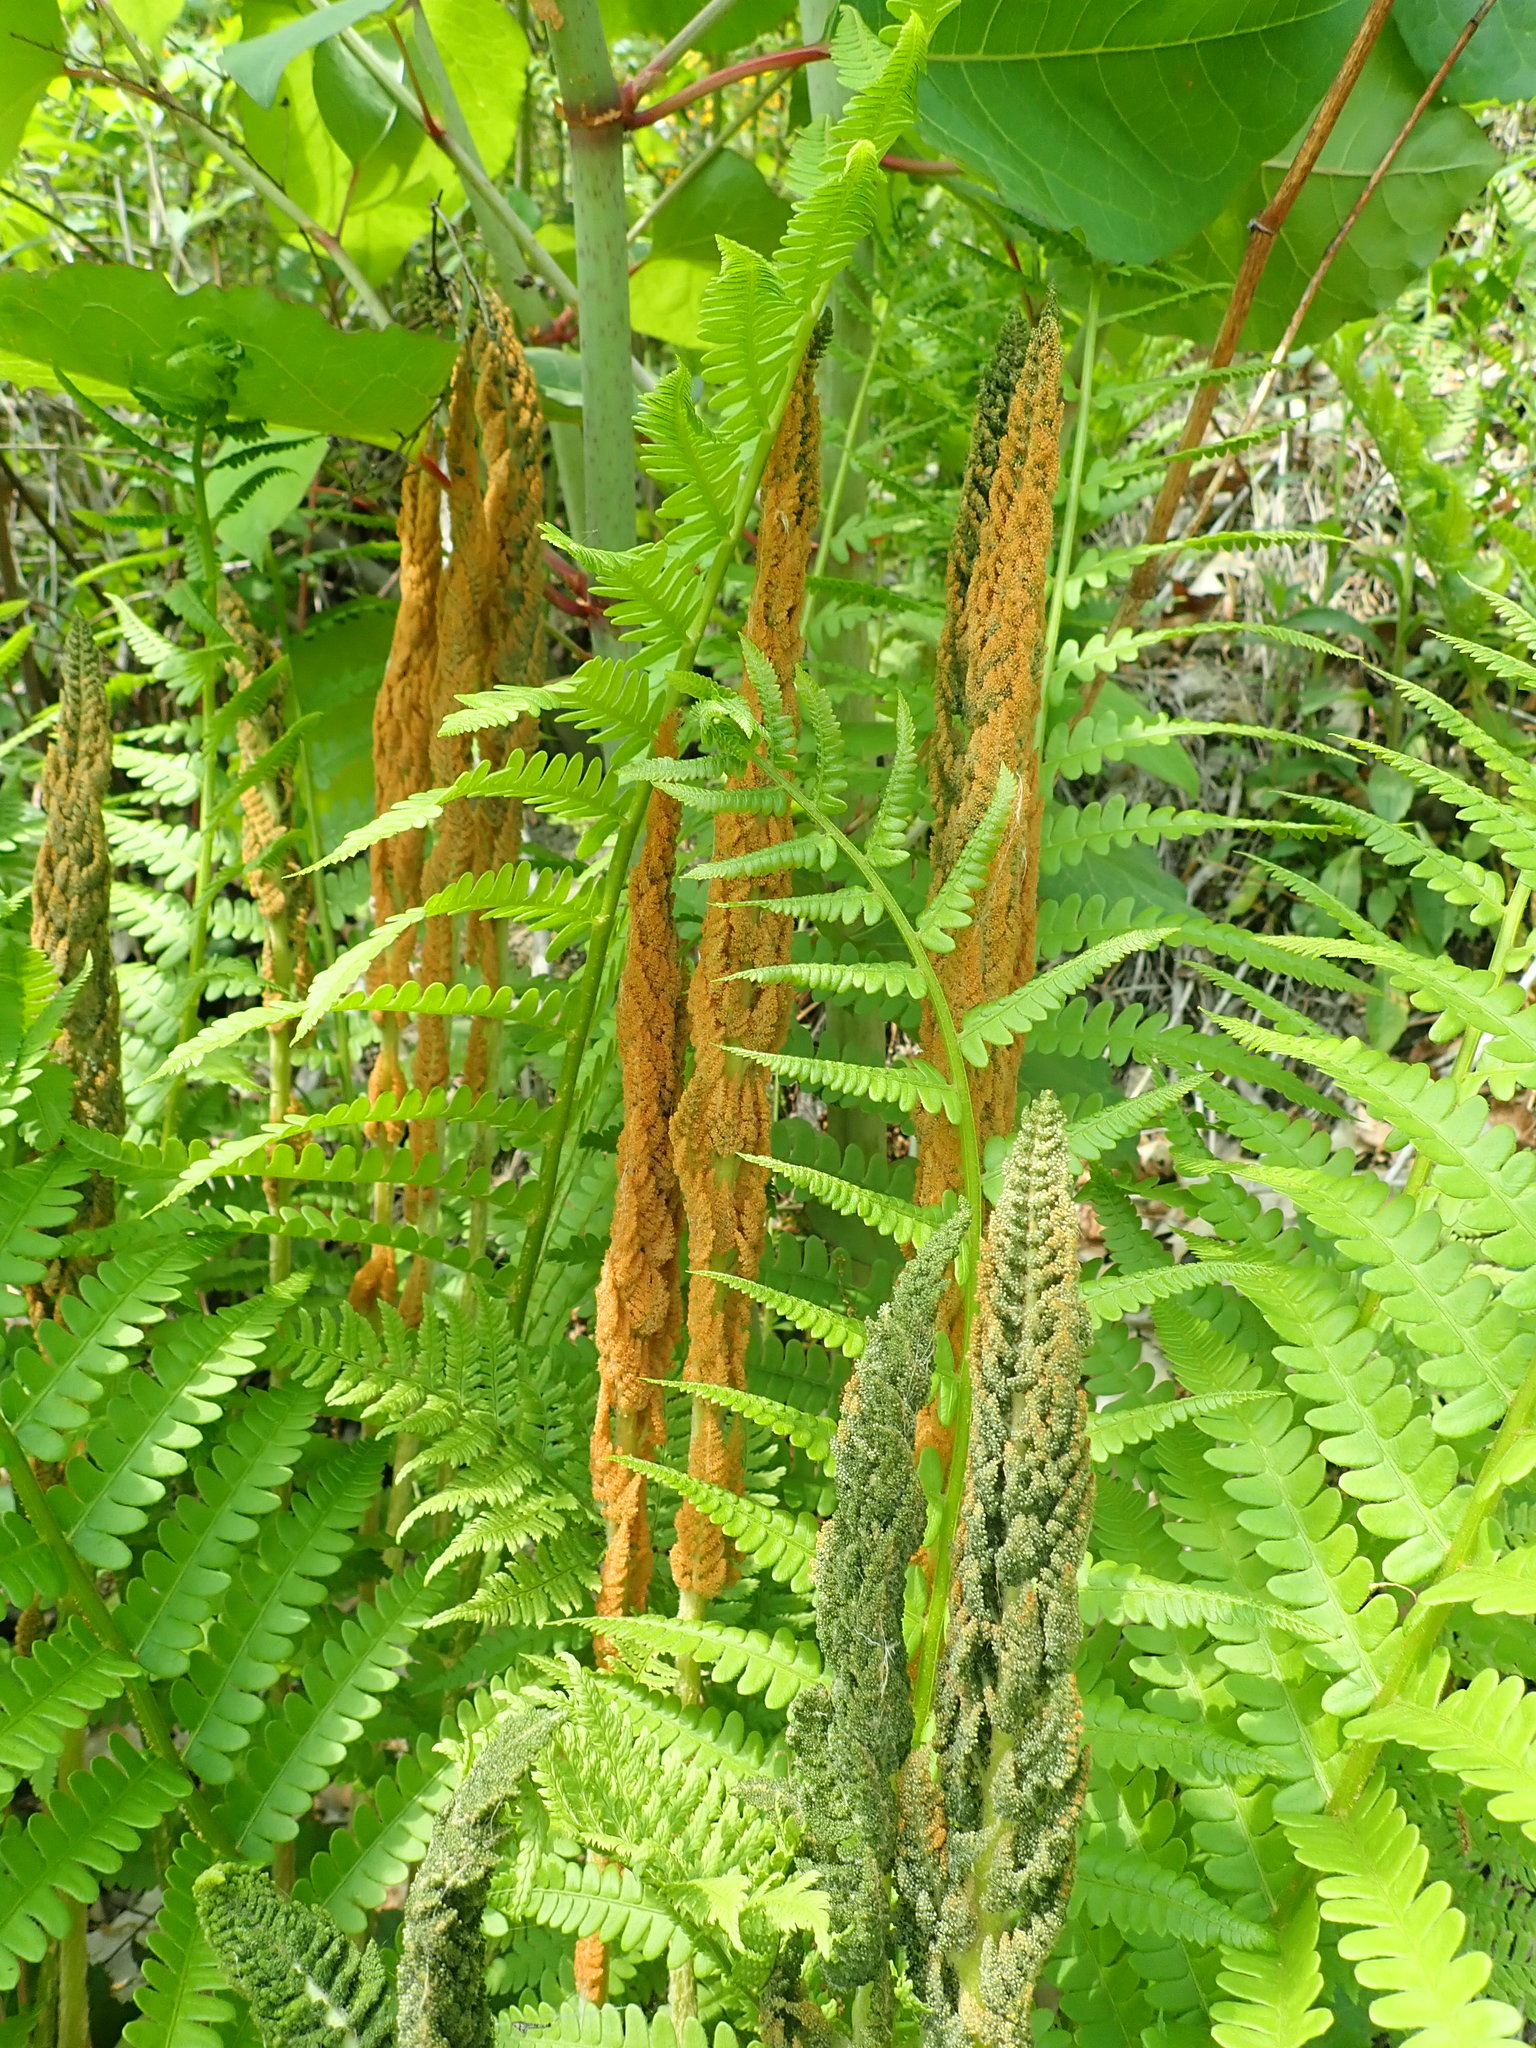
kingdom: Plantae
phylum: Tracheophyta
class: Polypodiopsida
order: Osmundales
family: Osmundaceae
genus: Osmundastrum
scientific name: Osmundastrum cinnamomeum
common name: Cinnamon fern
